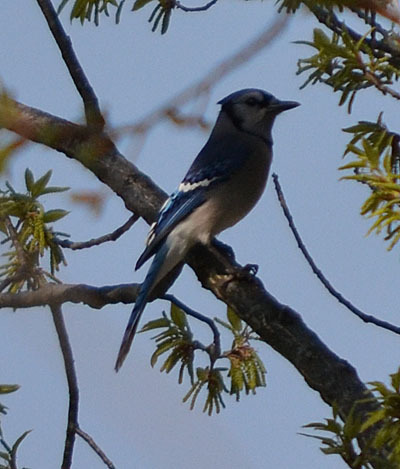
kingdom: Animalia
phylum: Chordata
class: Aves
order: Passeriformes
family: Corvidae
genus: Cyanocitta
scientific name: Cyanocitta cristata
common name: Blue jay
